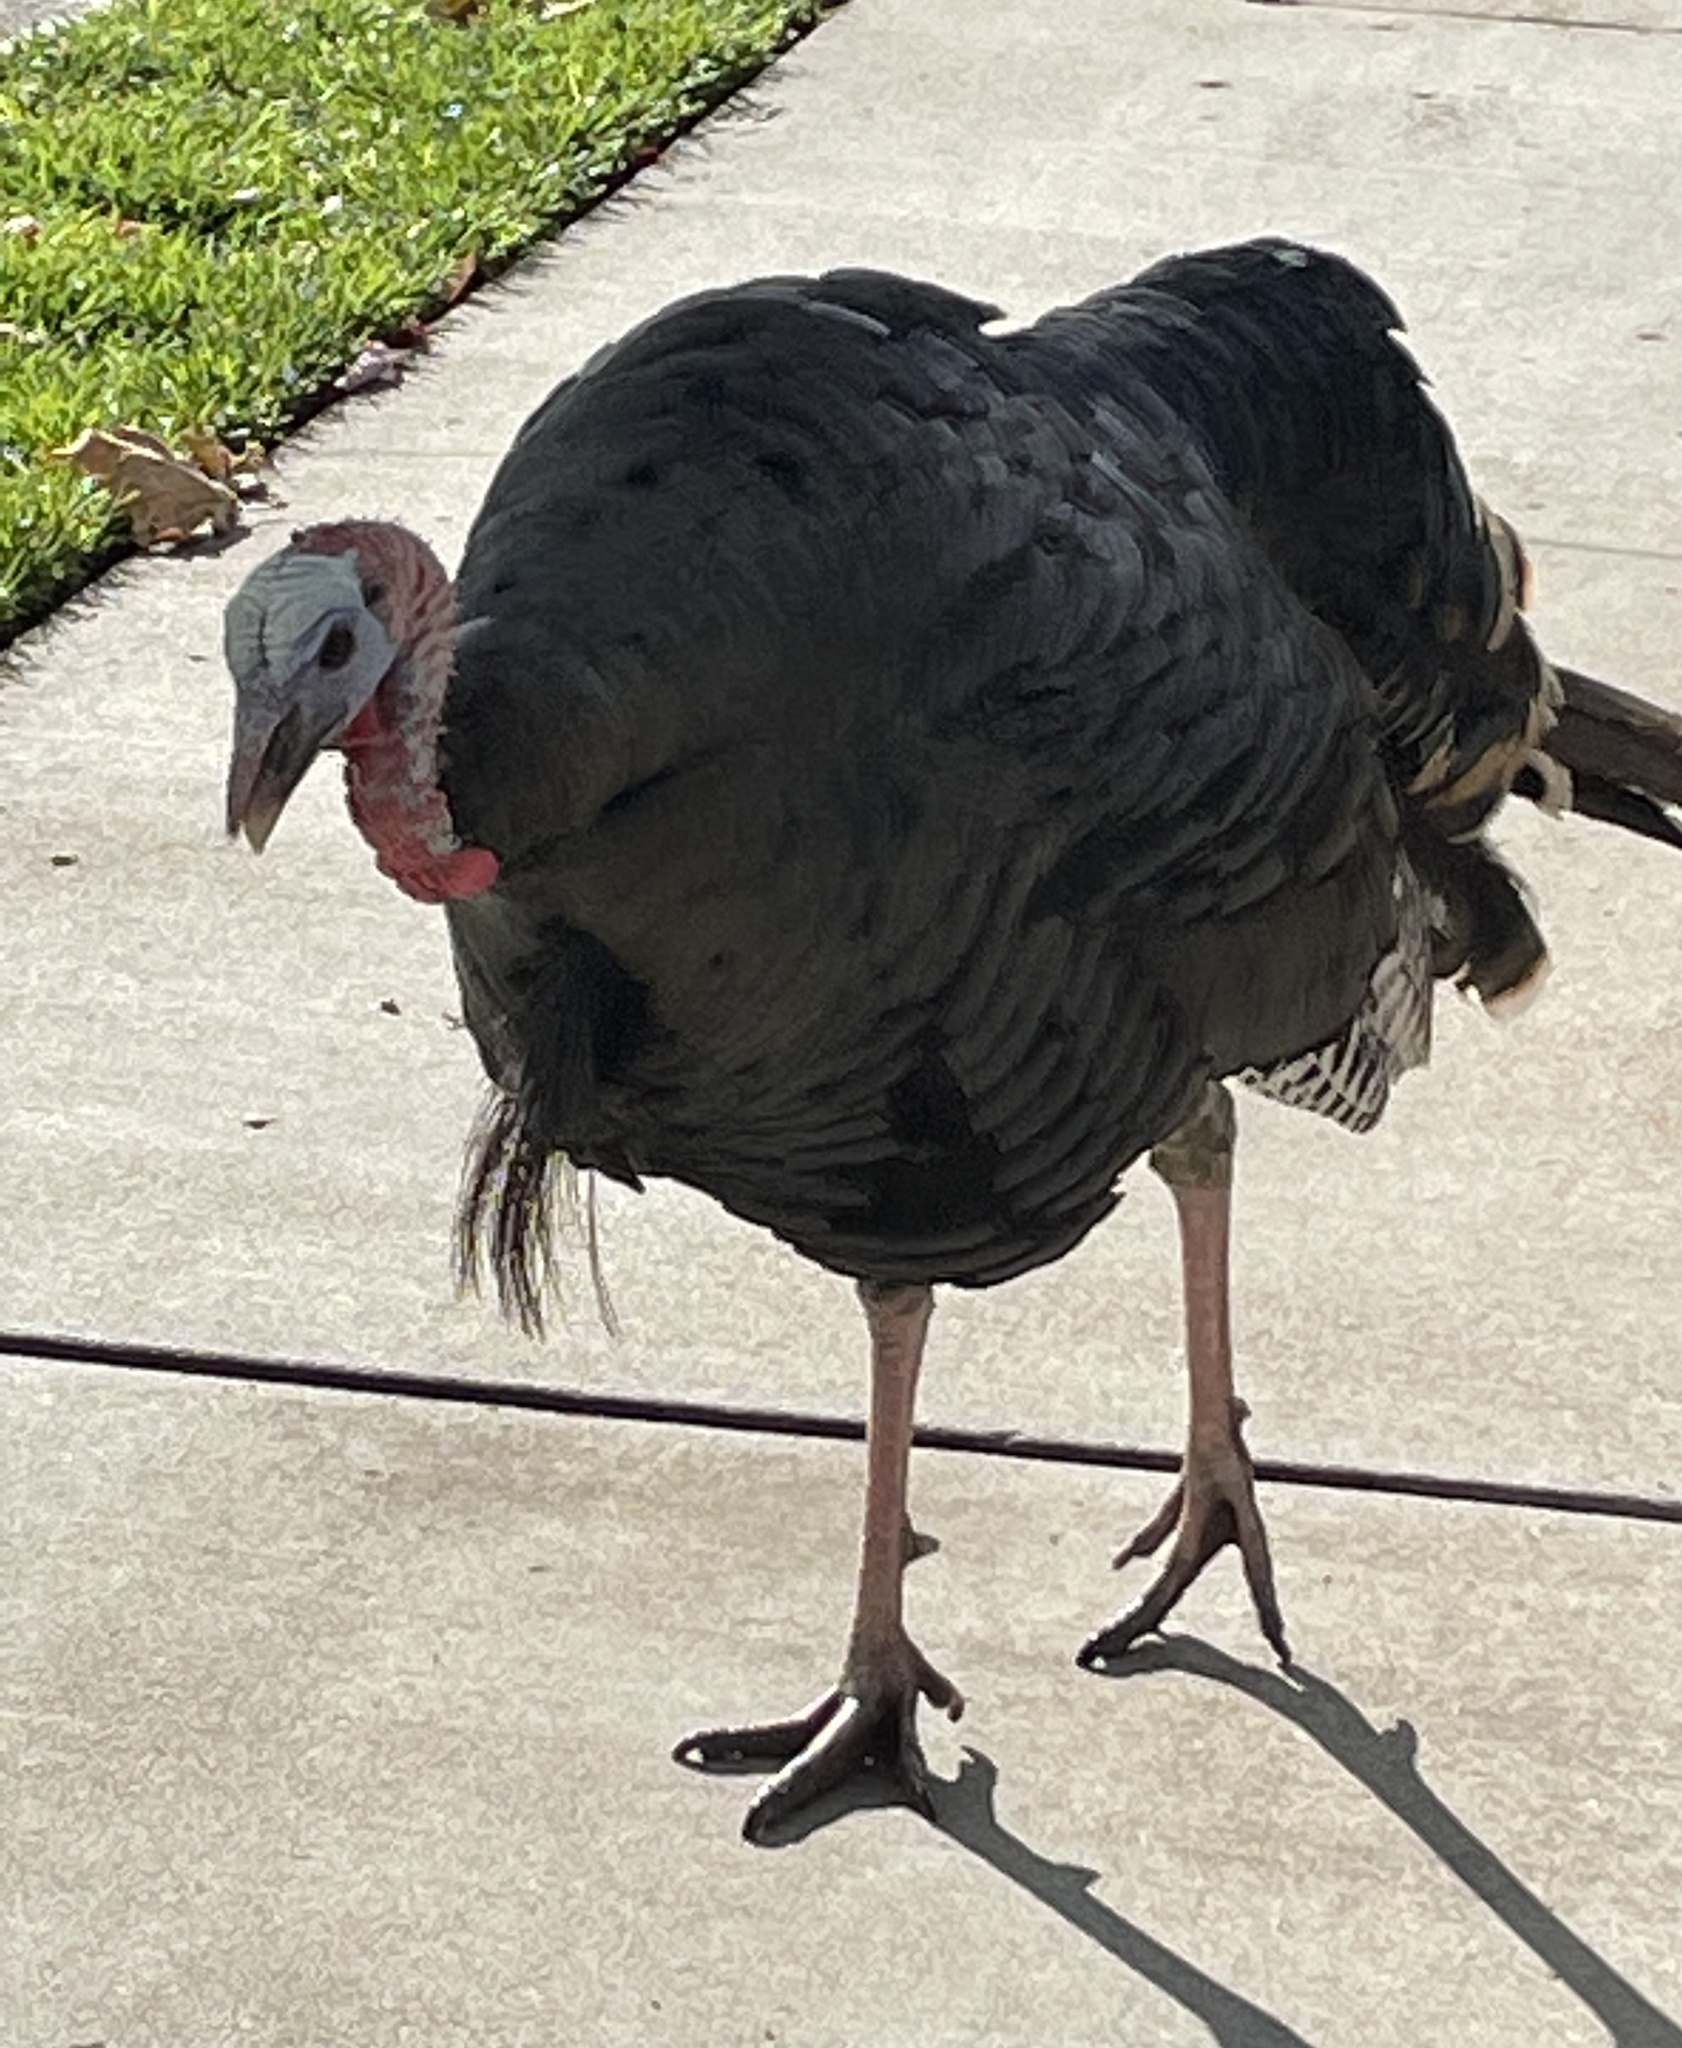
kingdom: Animalia
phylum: Chordata
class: Aves
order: Galliformes
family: Phasianidae
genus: Meleagris
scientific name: Meleagris gallopavo
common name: Wild turkey
